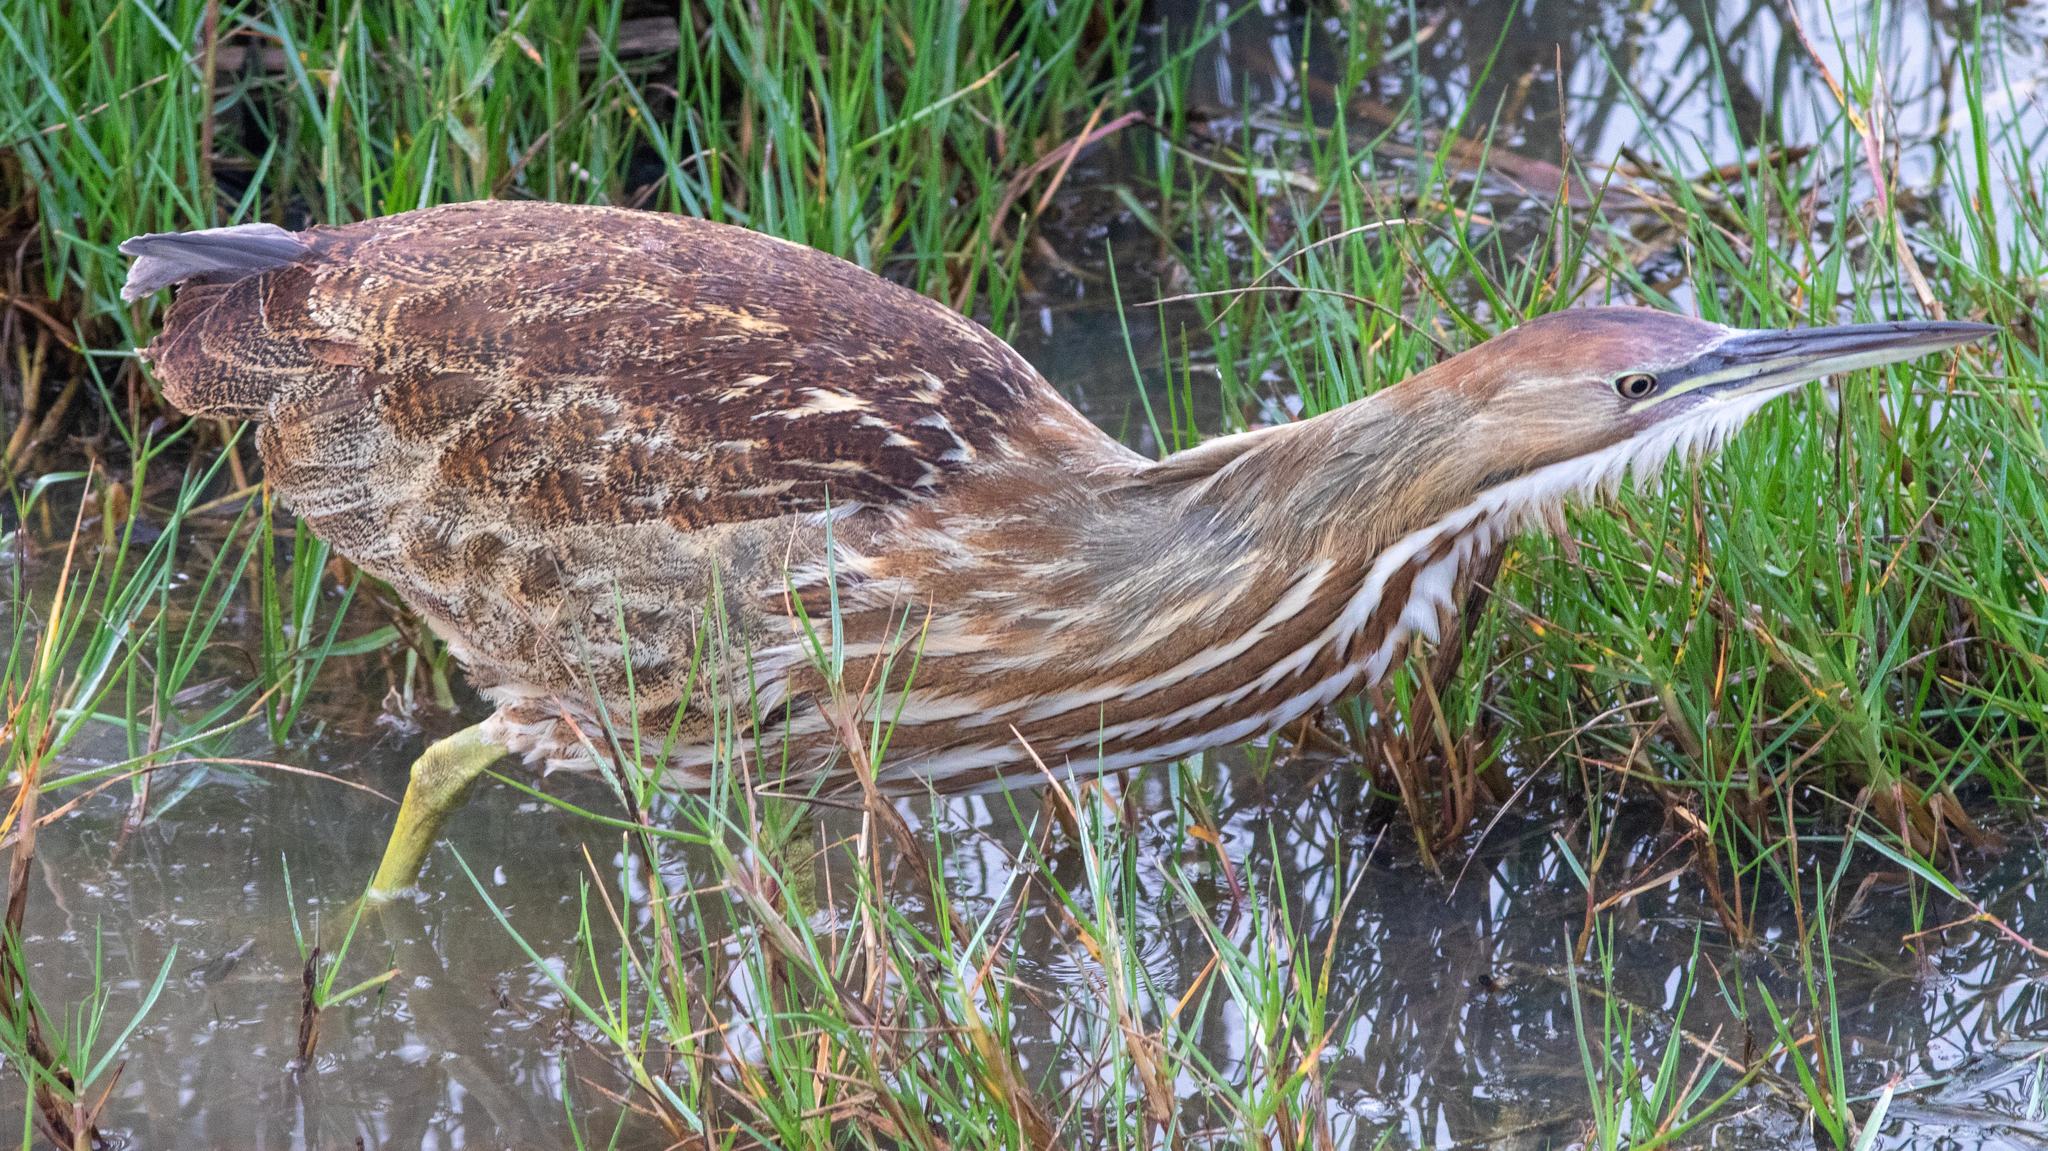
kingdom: Animalia
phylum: Chordata
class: Aves
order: Pelecaniformes
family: Ardeidae
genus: Botaurus
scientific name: Botaurus lentiginosus
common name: American bittern
